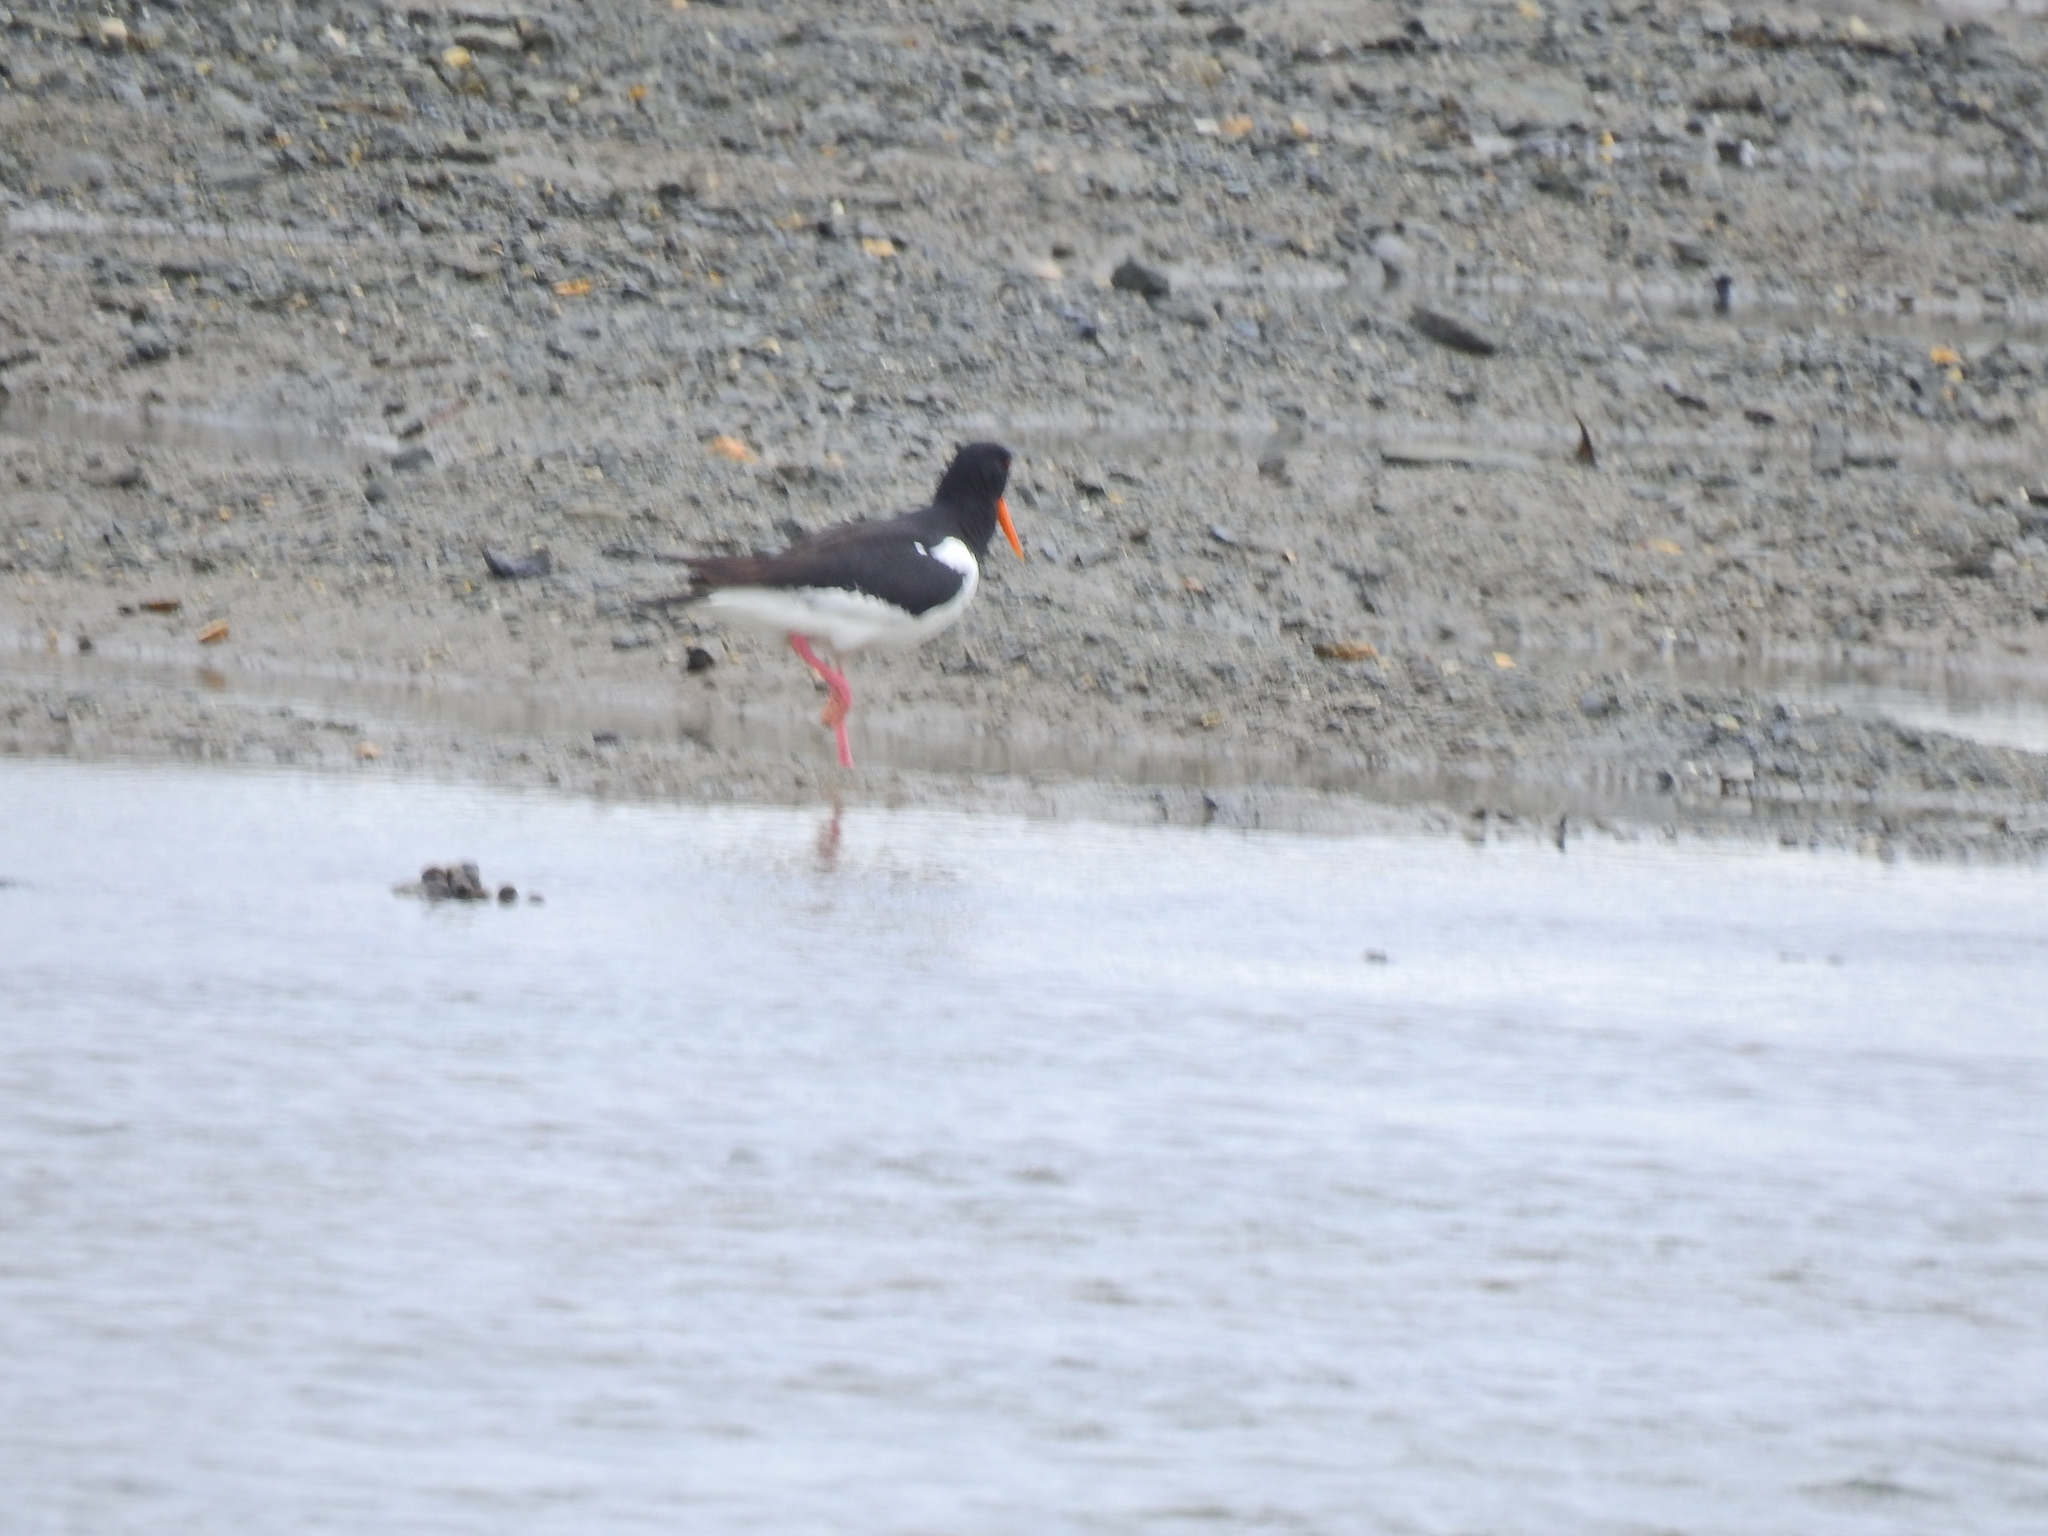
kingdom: Animalia
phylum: Chordata
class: Aves
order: Charadriiformes
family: Haematopodidae
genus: Haematopus
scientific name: Haematopus ostralegus
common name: Eurasian oystercatcher
